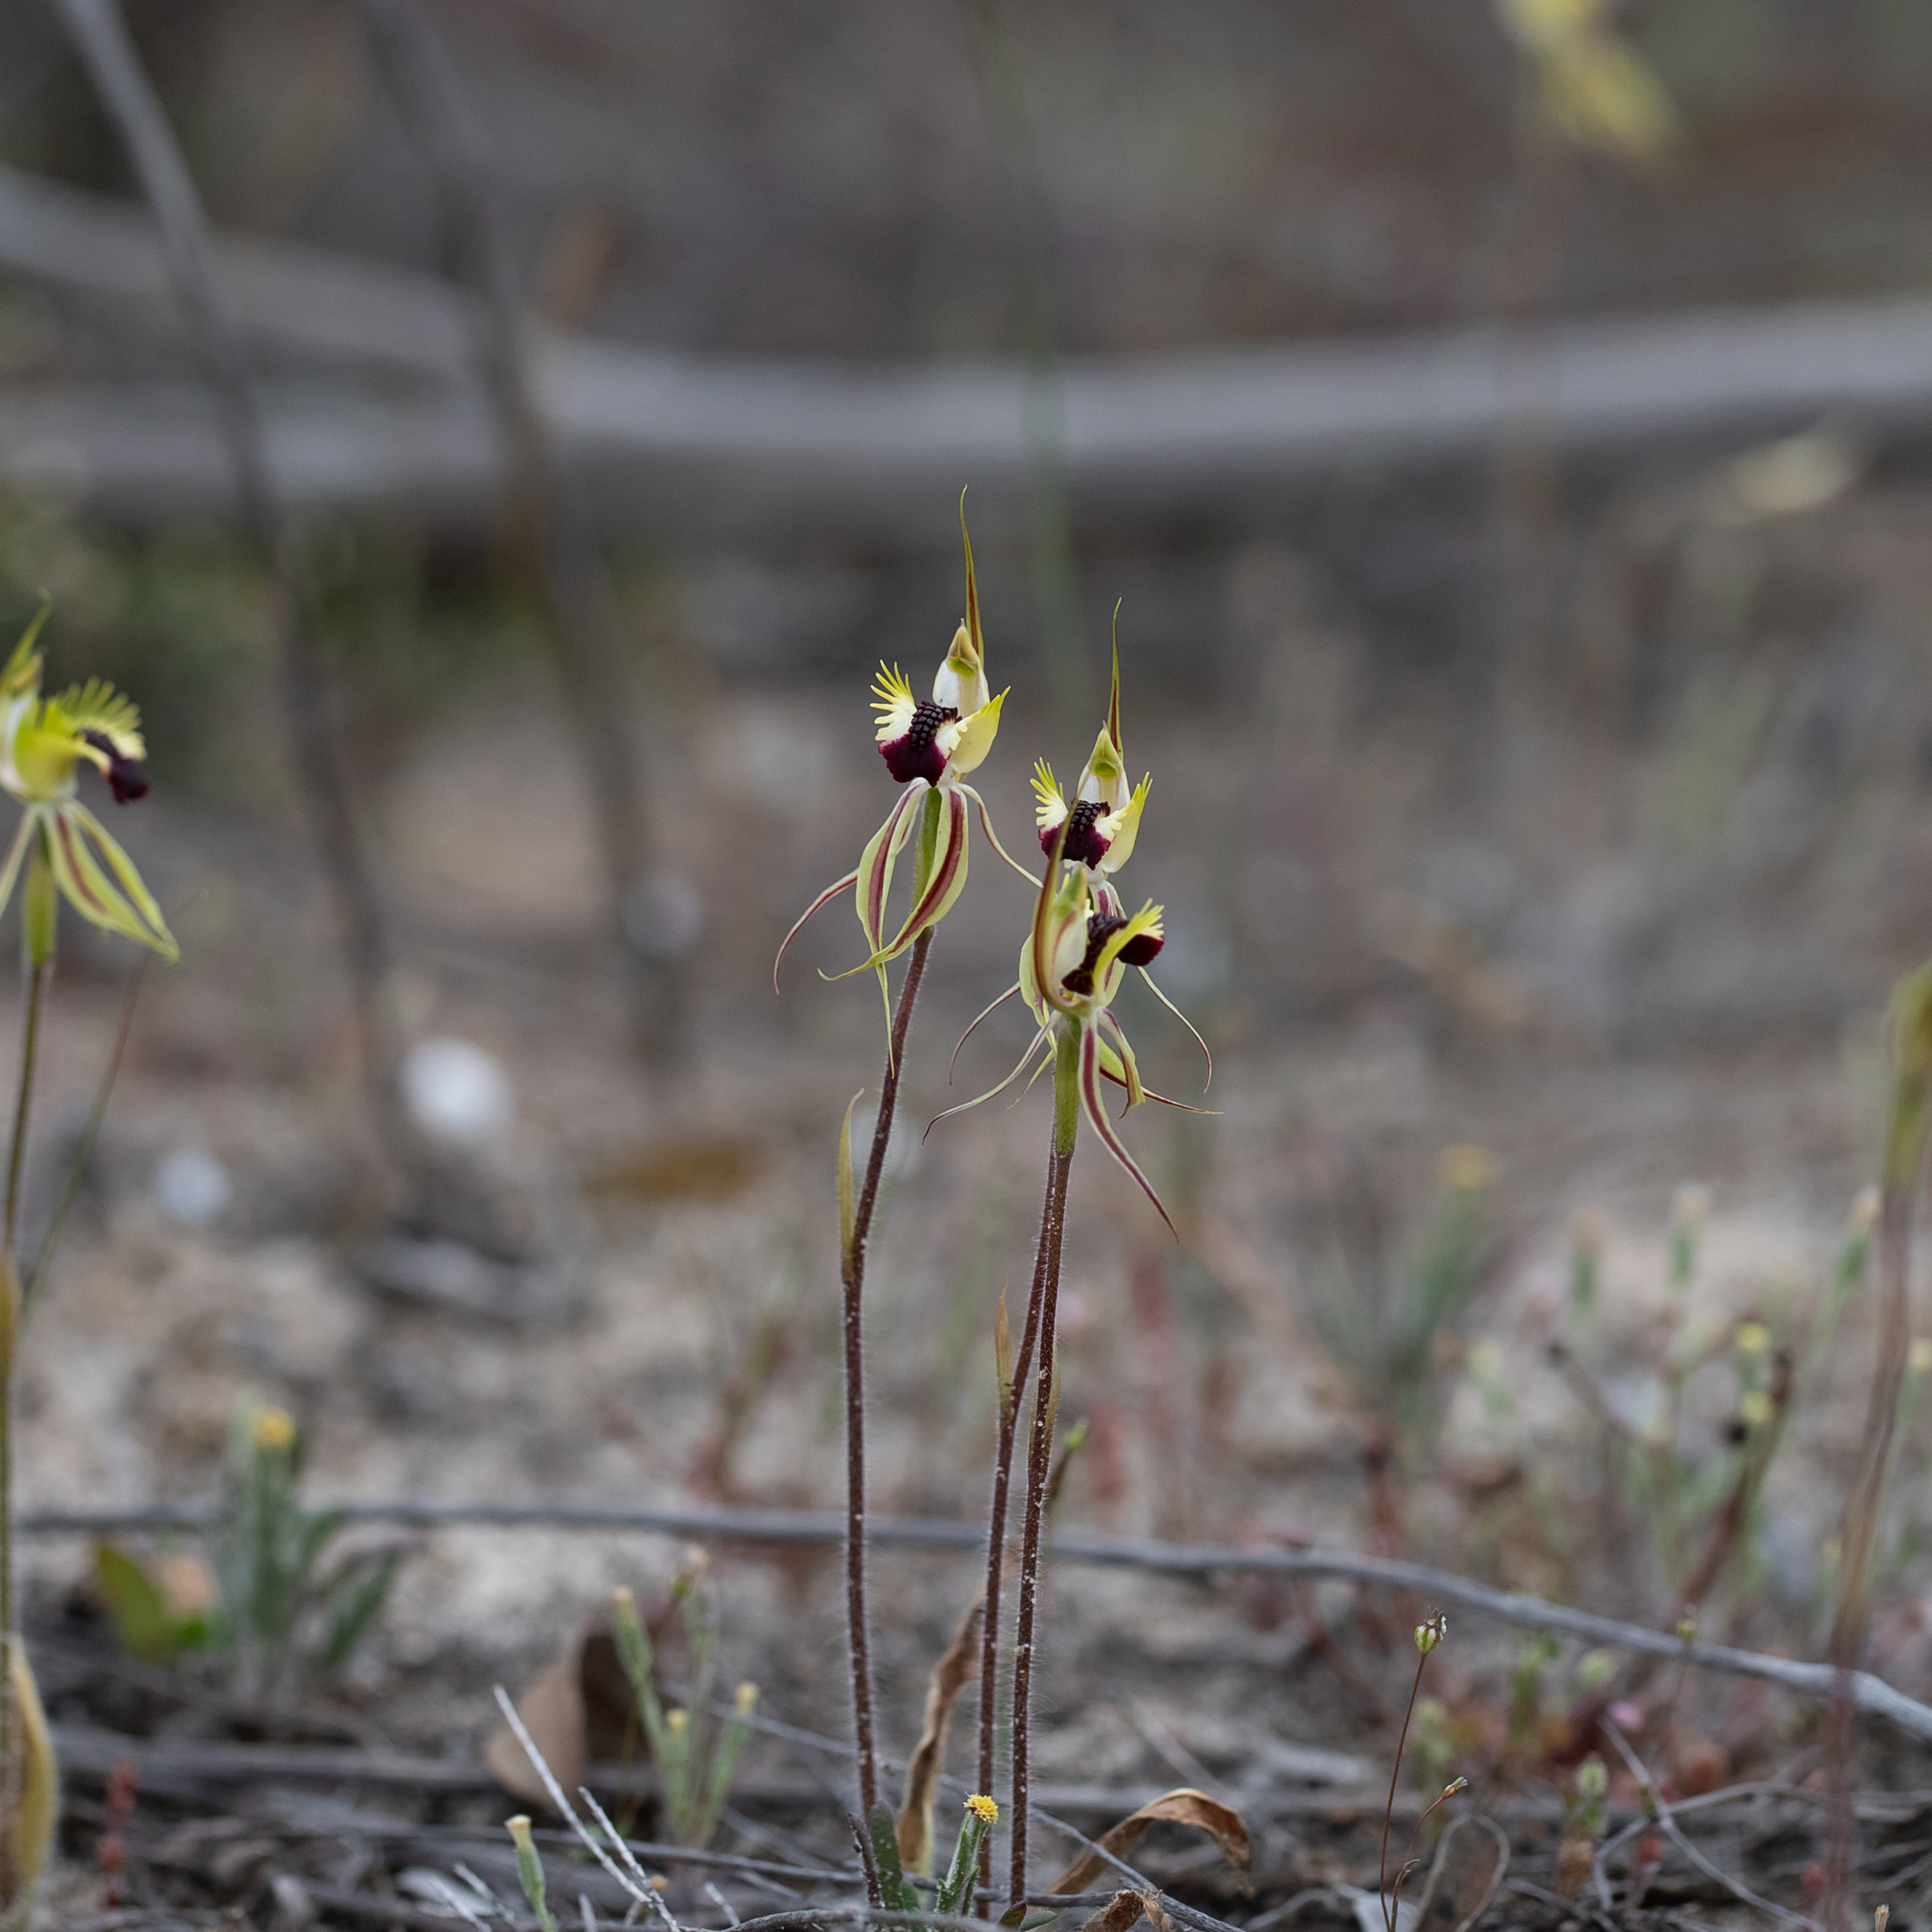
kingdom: Plantae
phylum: Tracheophyta
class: Liliopsida
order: Asparagales
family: Orchidaceae
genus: Caladenia
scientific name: Caladenia stricta
